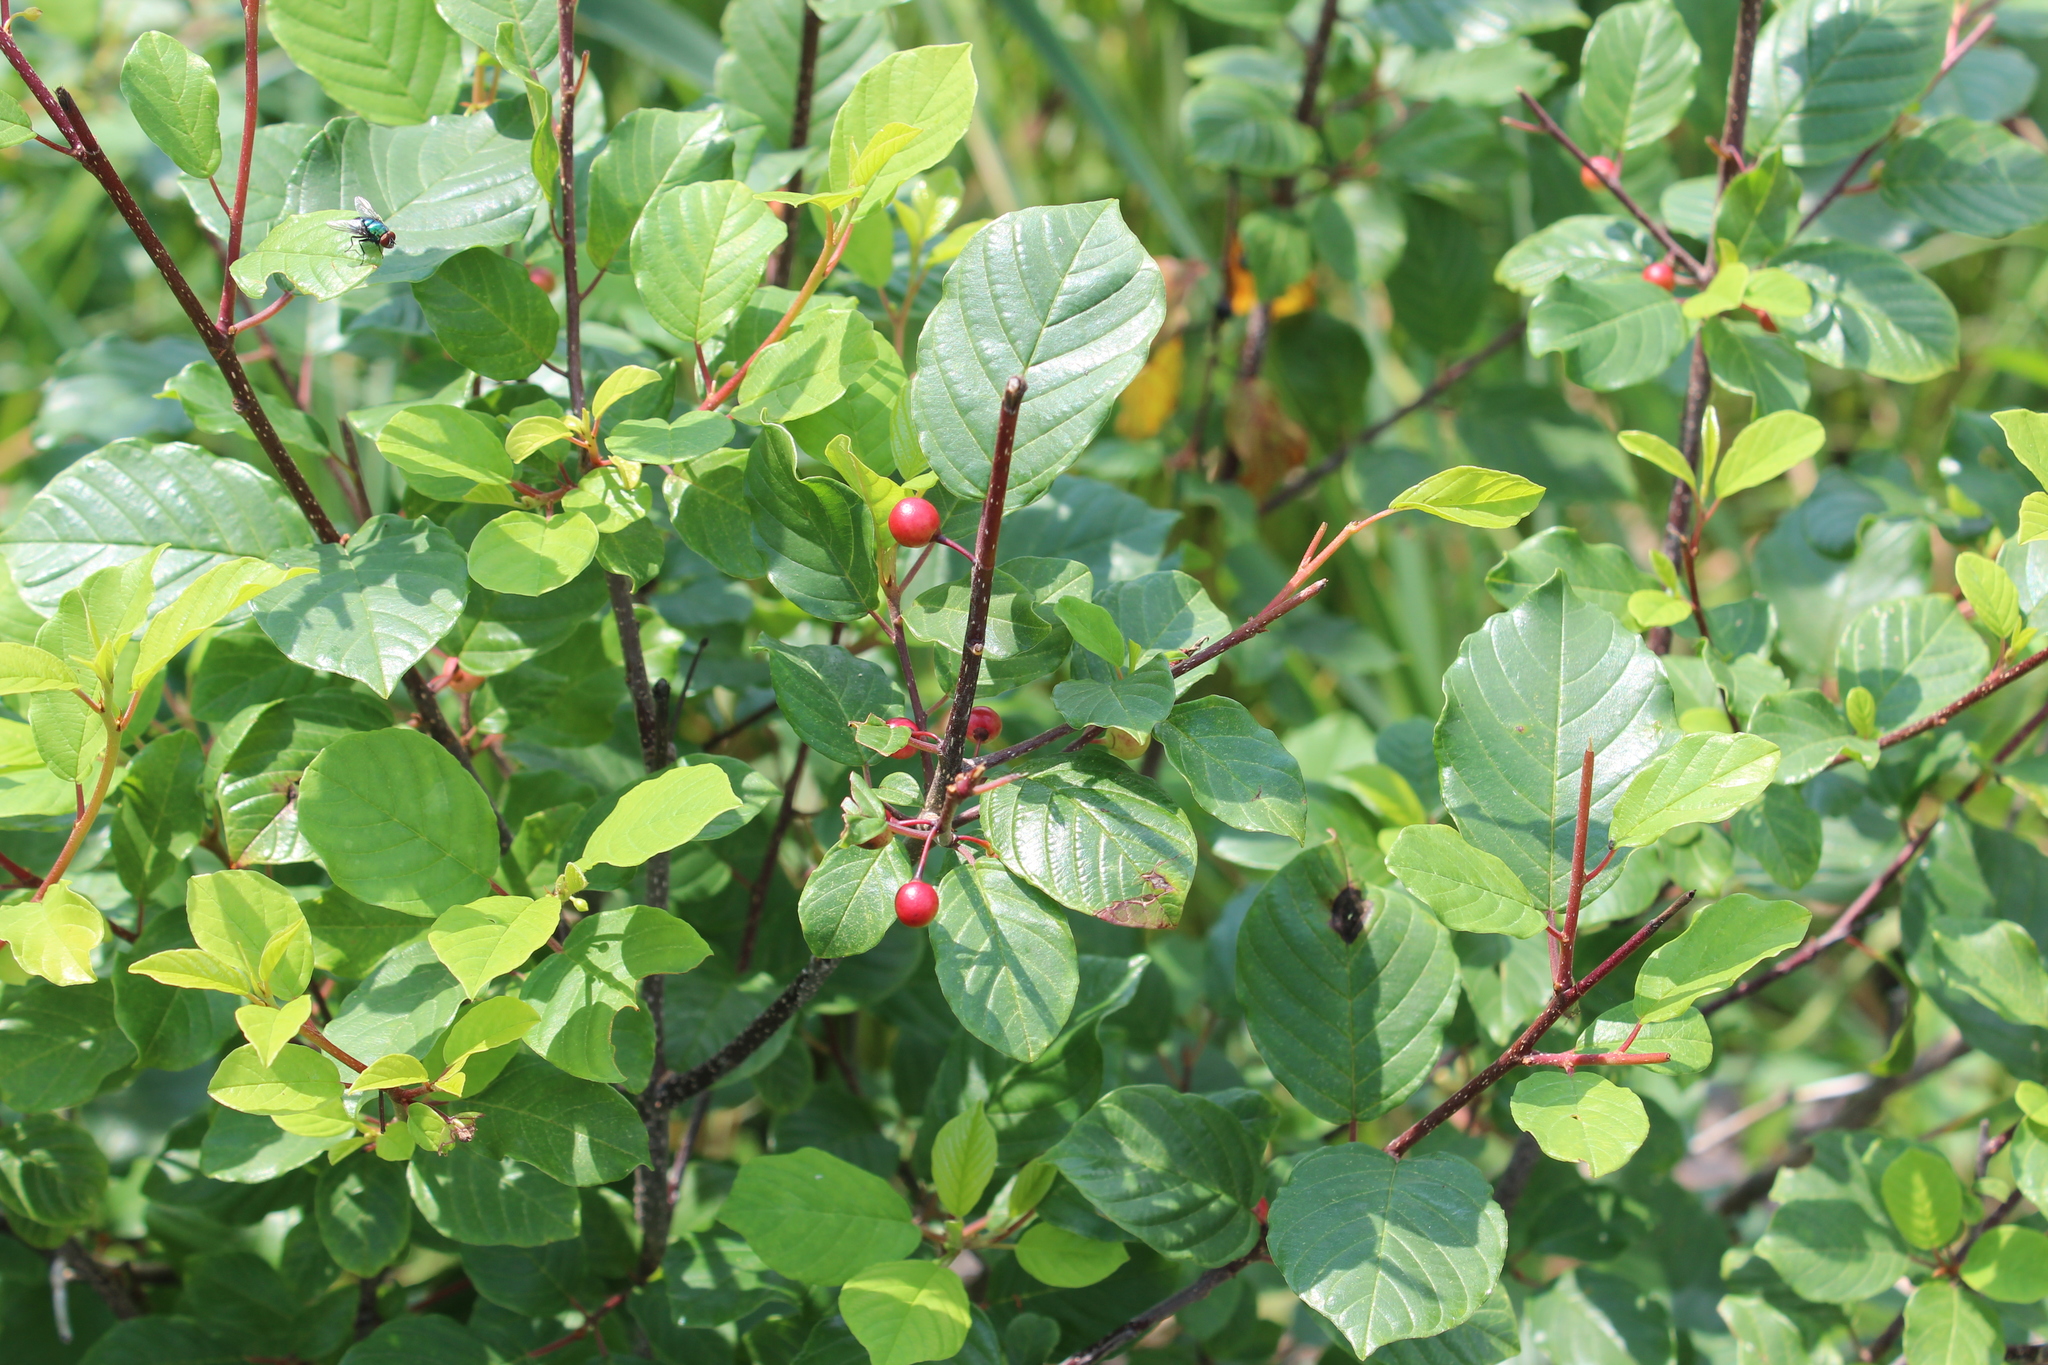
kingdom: Plantae
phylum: Tracheophyta
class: Magnoliopsida
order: Rosales
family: Rhamnaceae
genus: Frangula
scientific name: Frangula alnus
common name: Alder buckthorn
